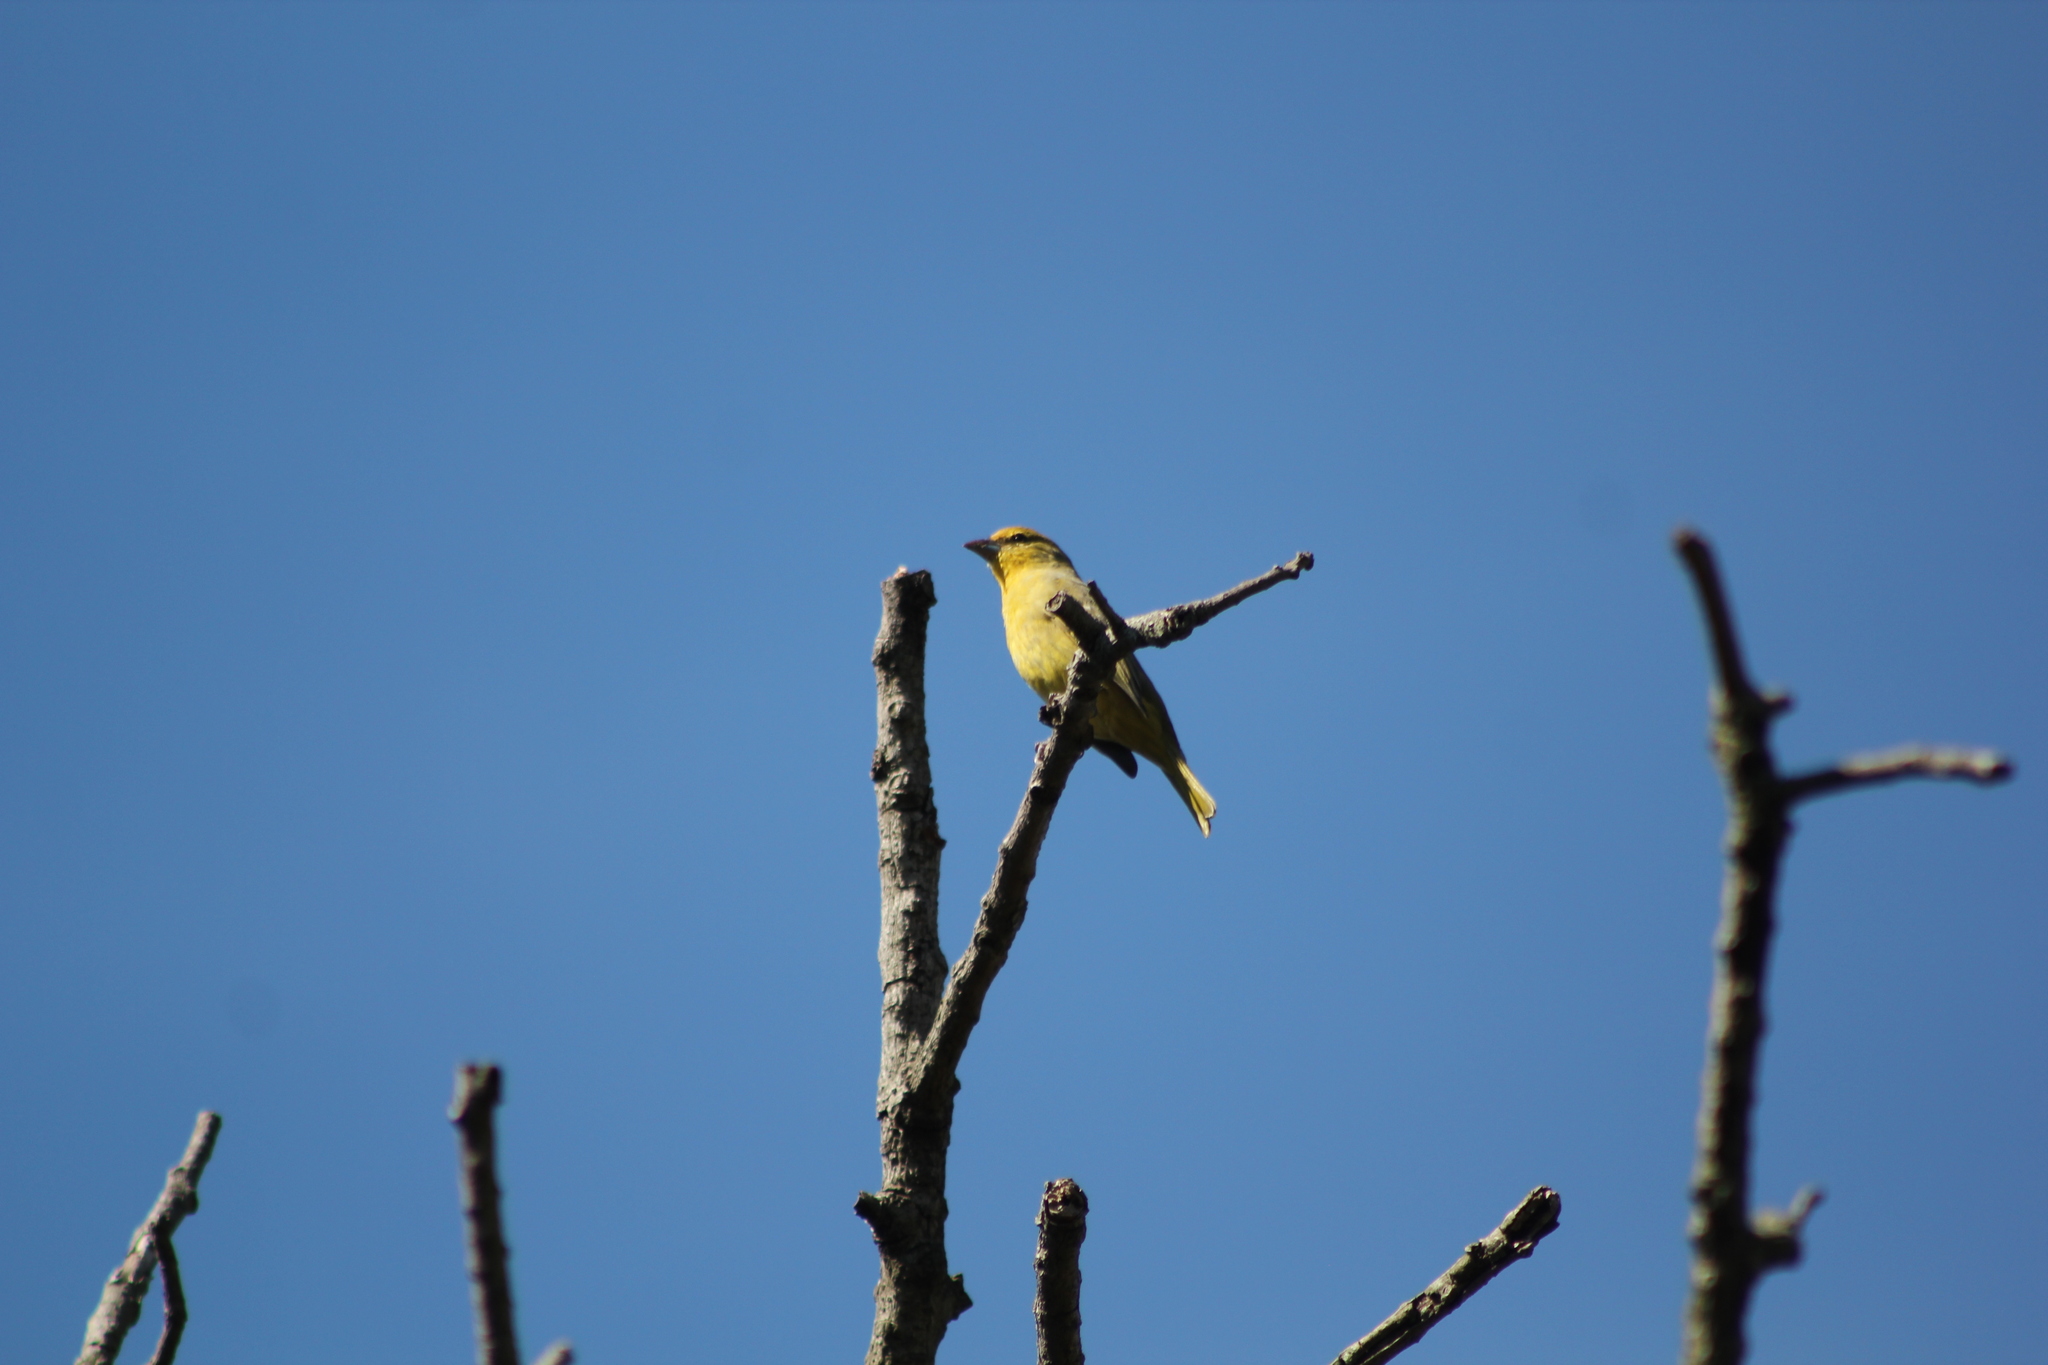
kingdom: Animalia
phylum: Chordata
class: Aves
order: Passeriformes
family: Cardinalidae
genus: Piranga
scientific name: Piranga flava
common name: Red tanager
